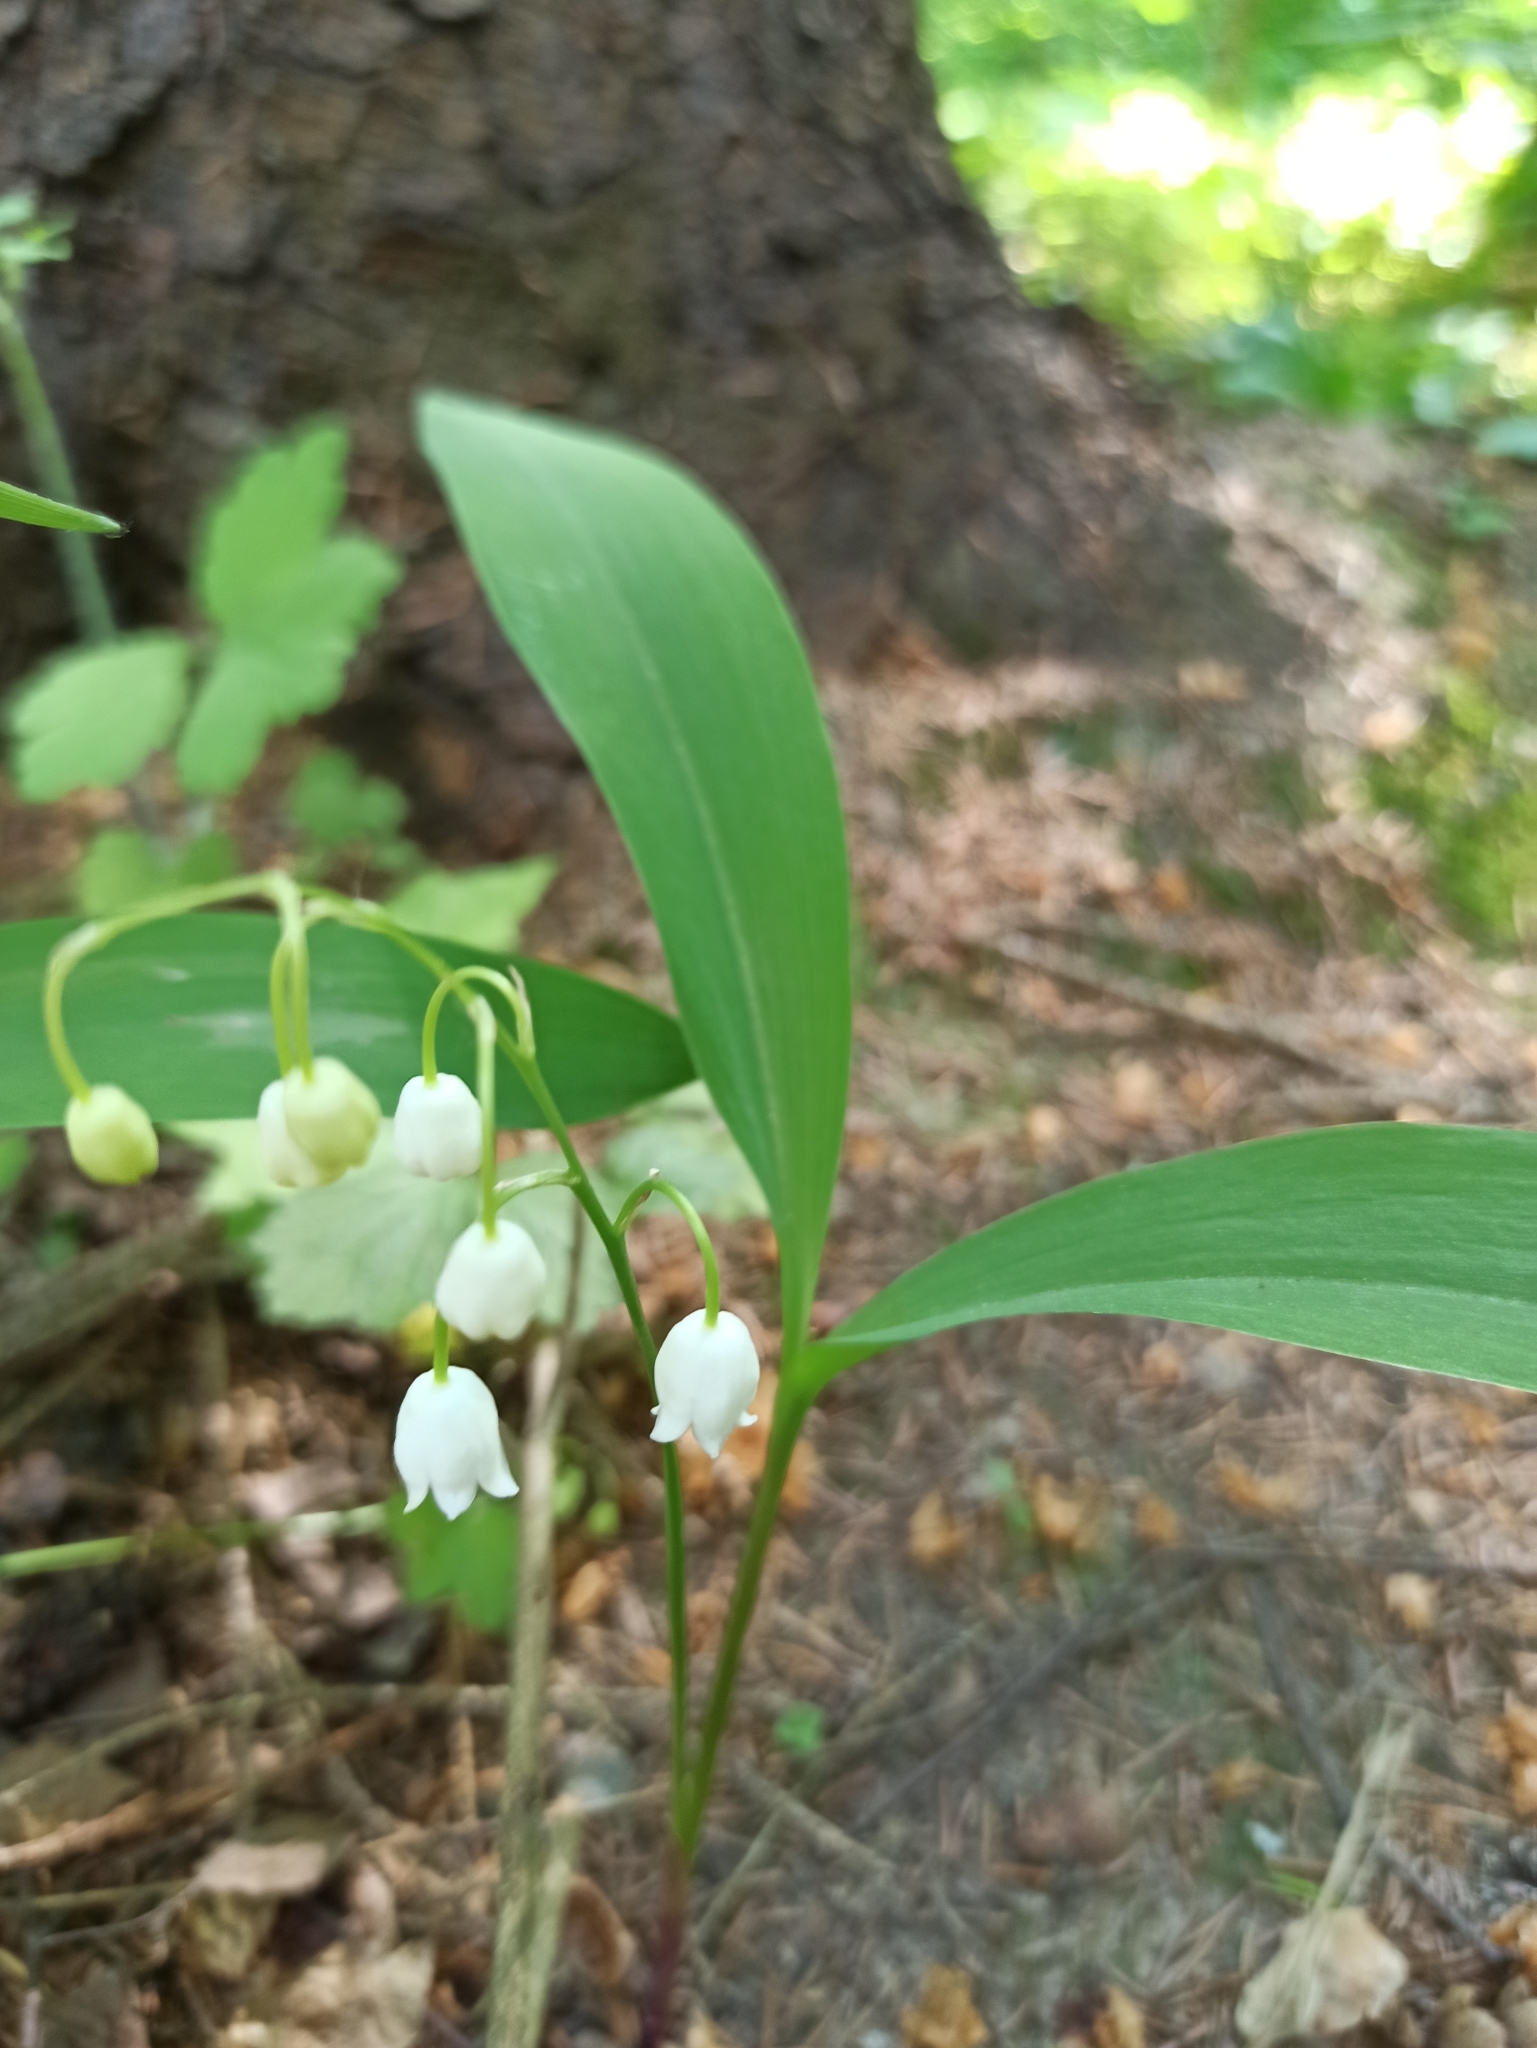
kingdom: Plantae
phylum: Tracheophyta
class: Liliopsida
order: Asparagales
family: Asparagaceae
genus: Convallaria
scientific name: Convallaria majalis
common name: Lily-of-the-valley
